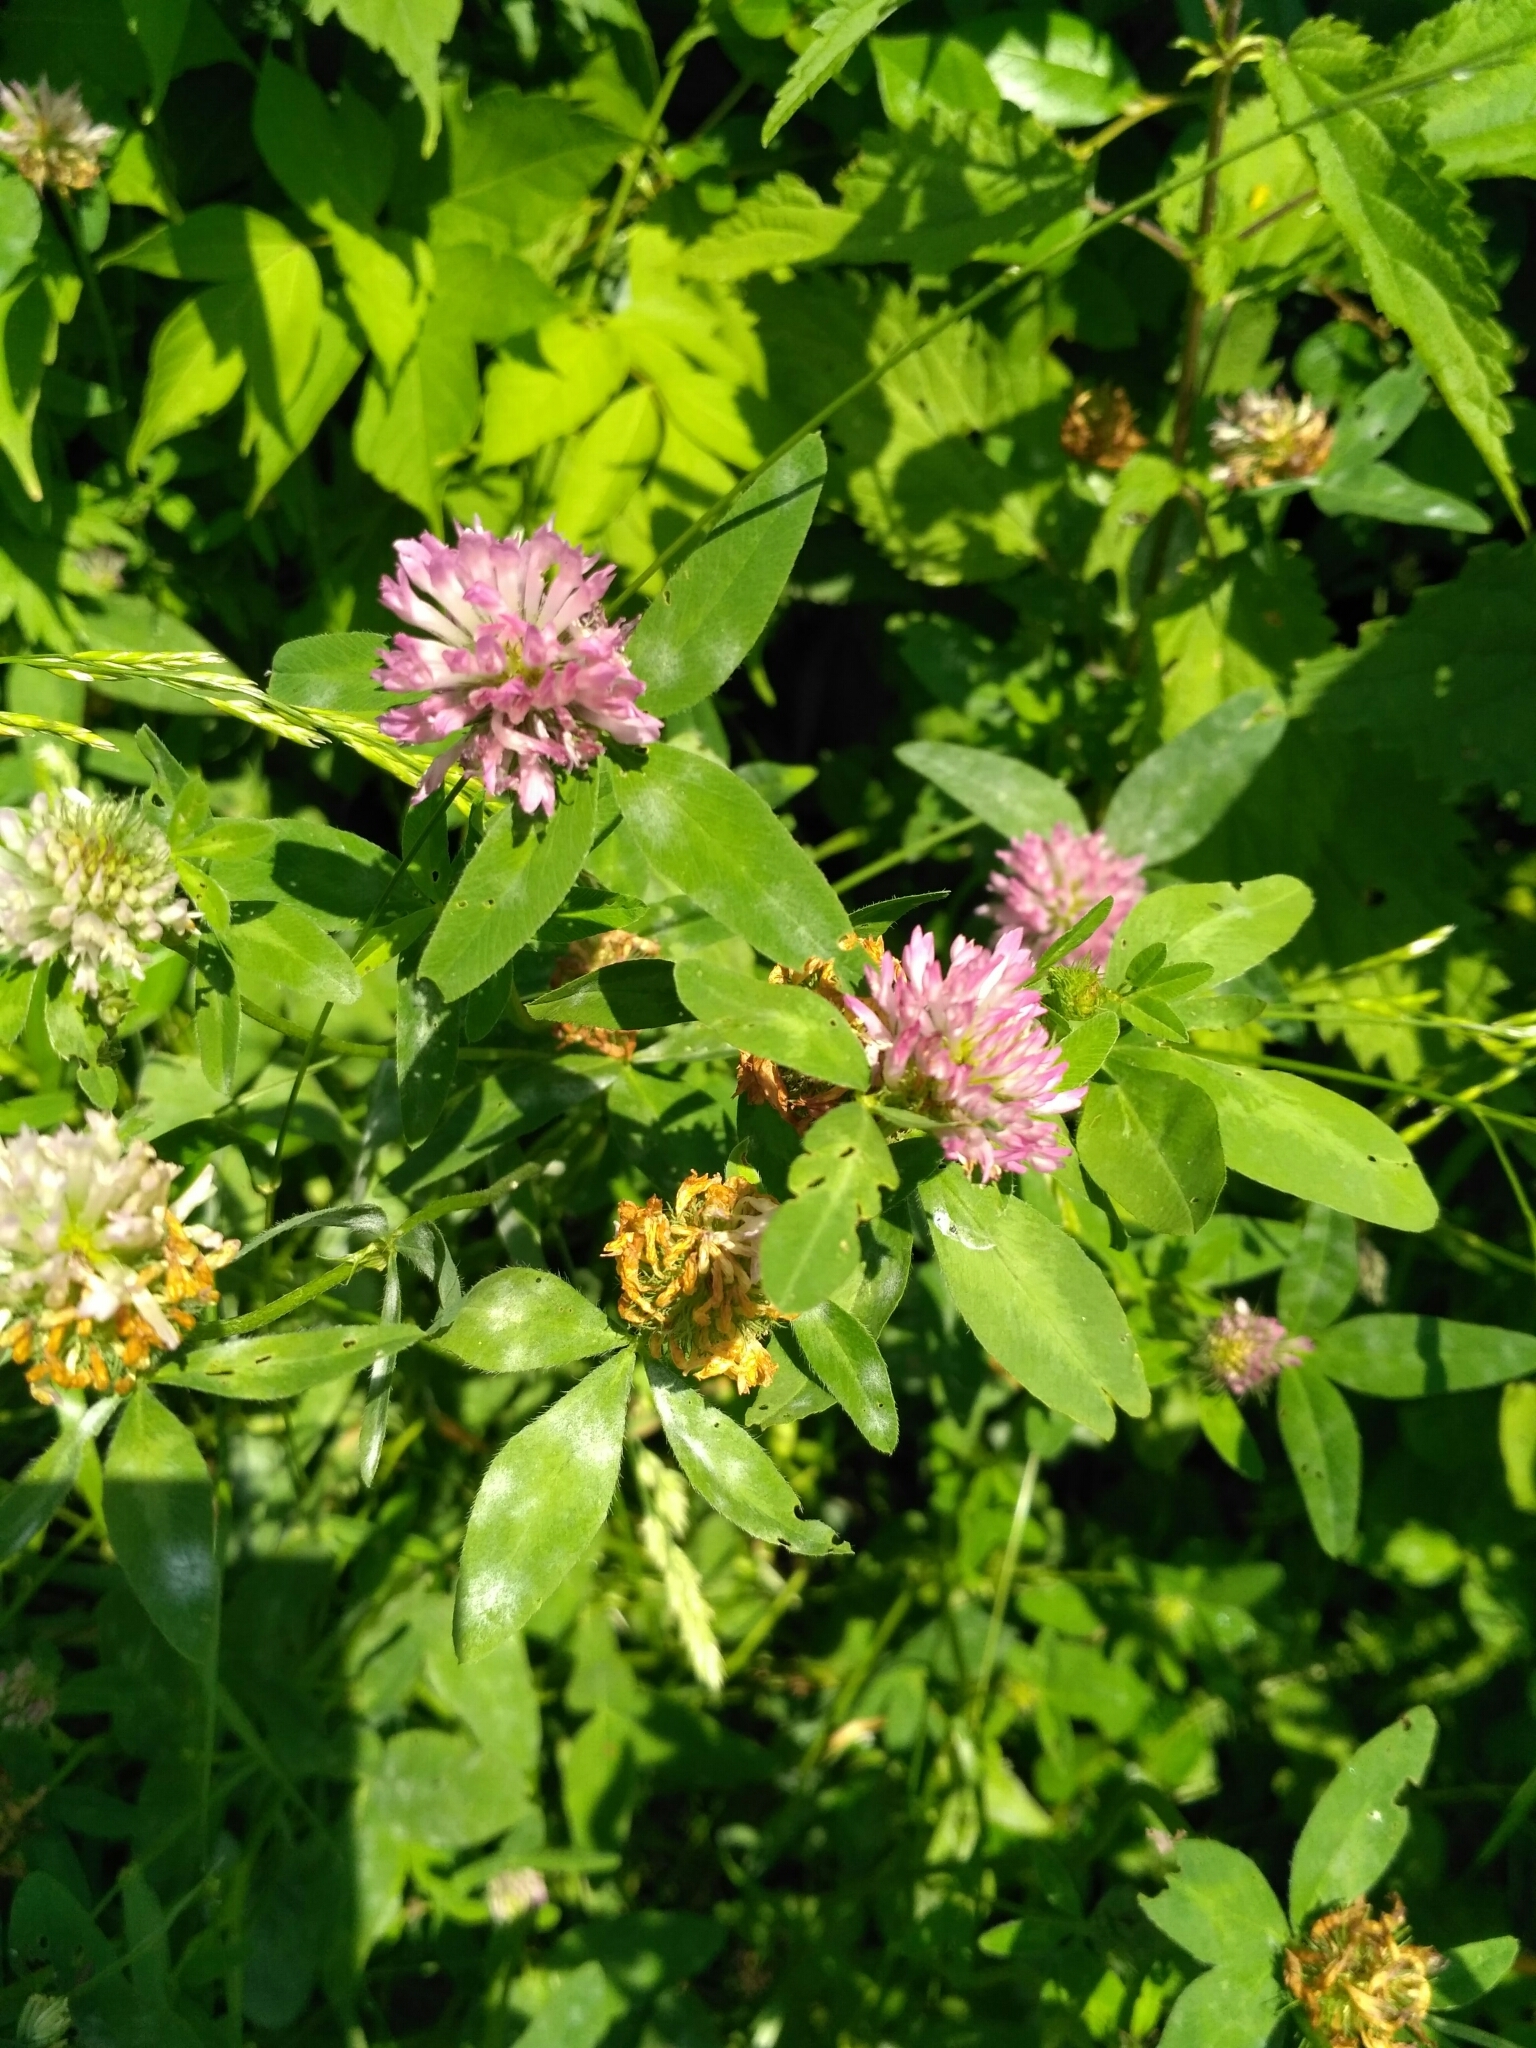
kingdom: Plantae
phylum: Tracheophyta
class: Magnoliopsida
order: Fabales
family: Fabaceae
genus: Trifolium
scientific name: Trifolium pratense
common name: Red clover
